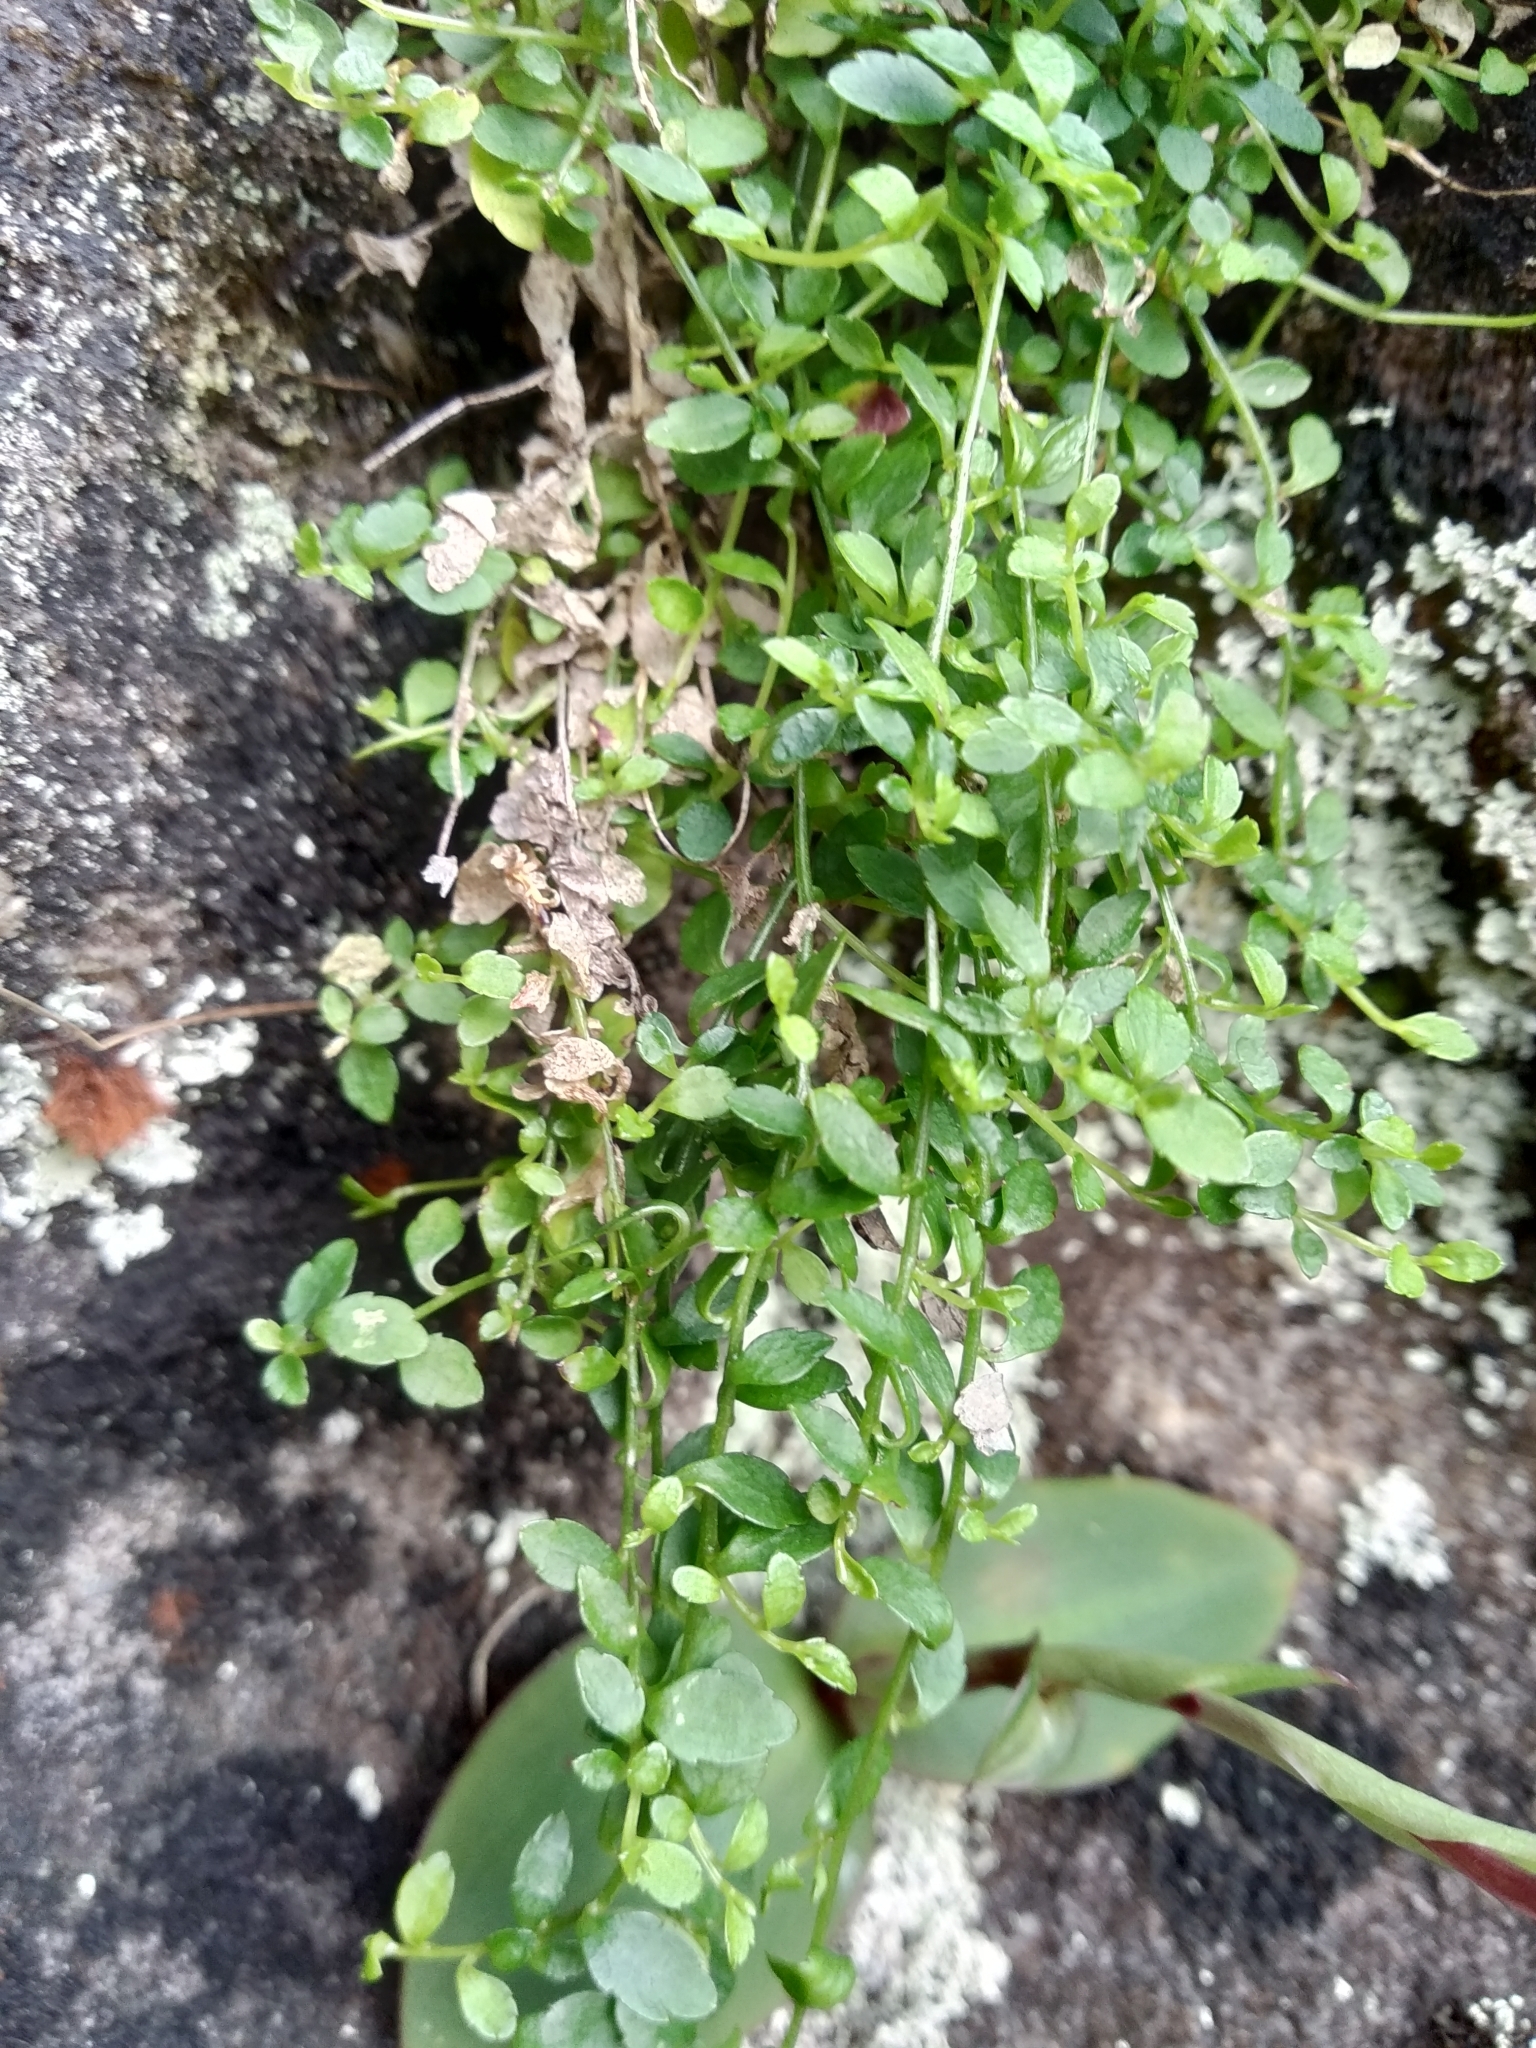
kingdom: Plantae
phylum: Tracheophyta
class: Magnoliopsida
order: Asterales
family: Campanulaceae
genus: Unigenes
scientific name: Unigenes humifusa
